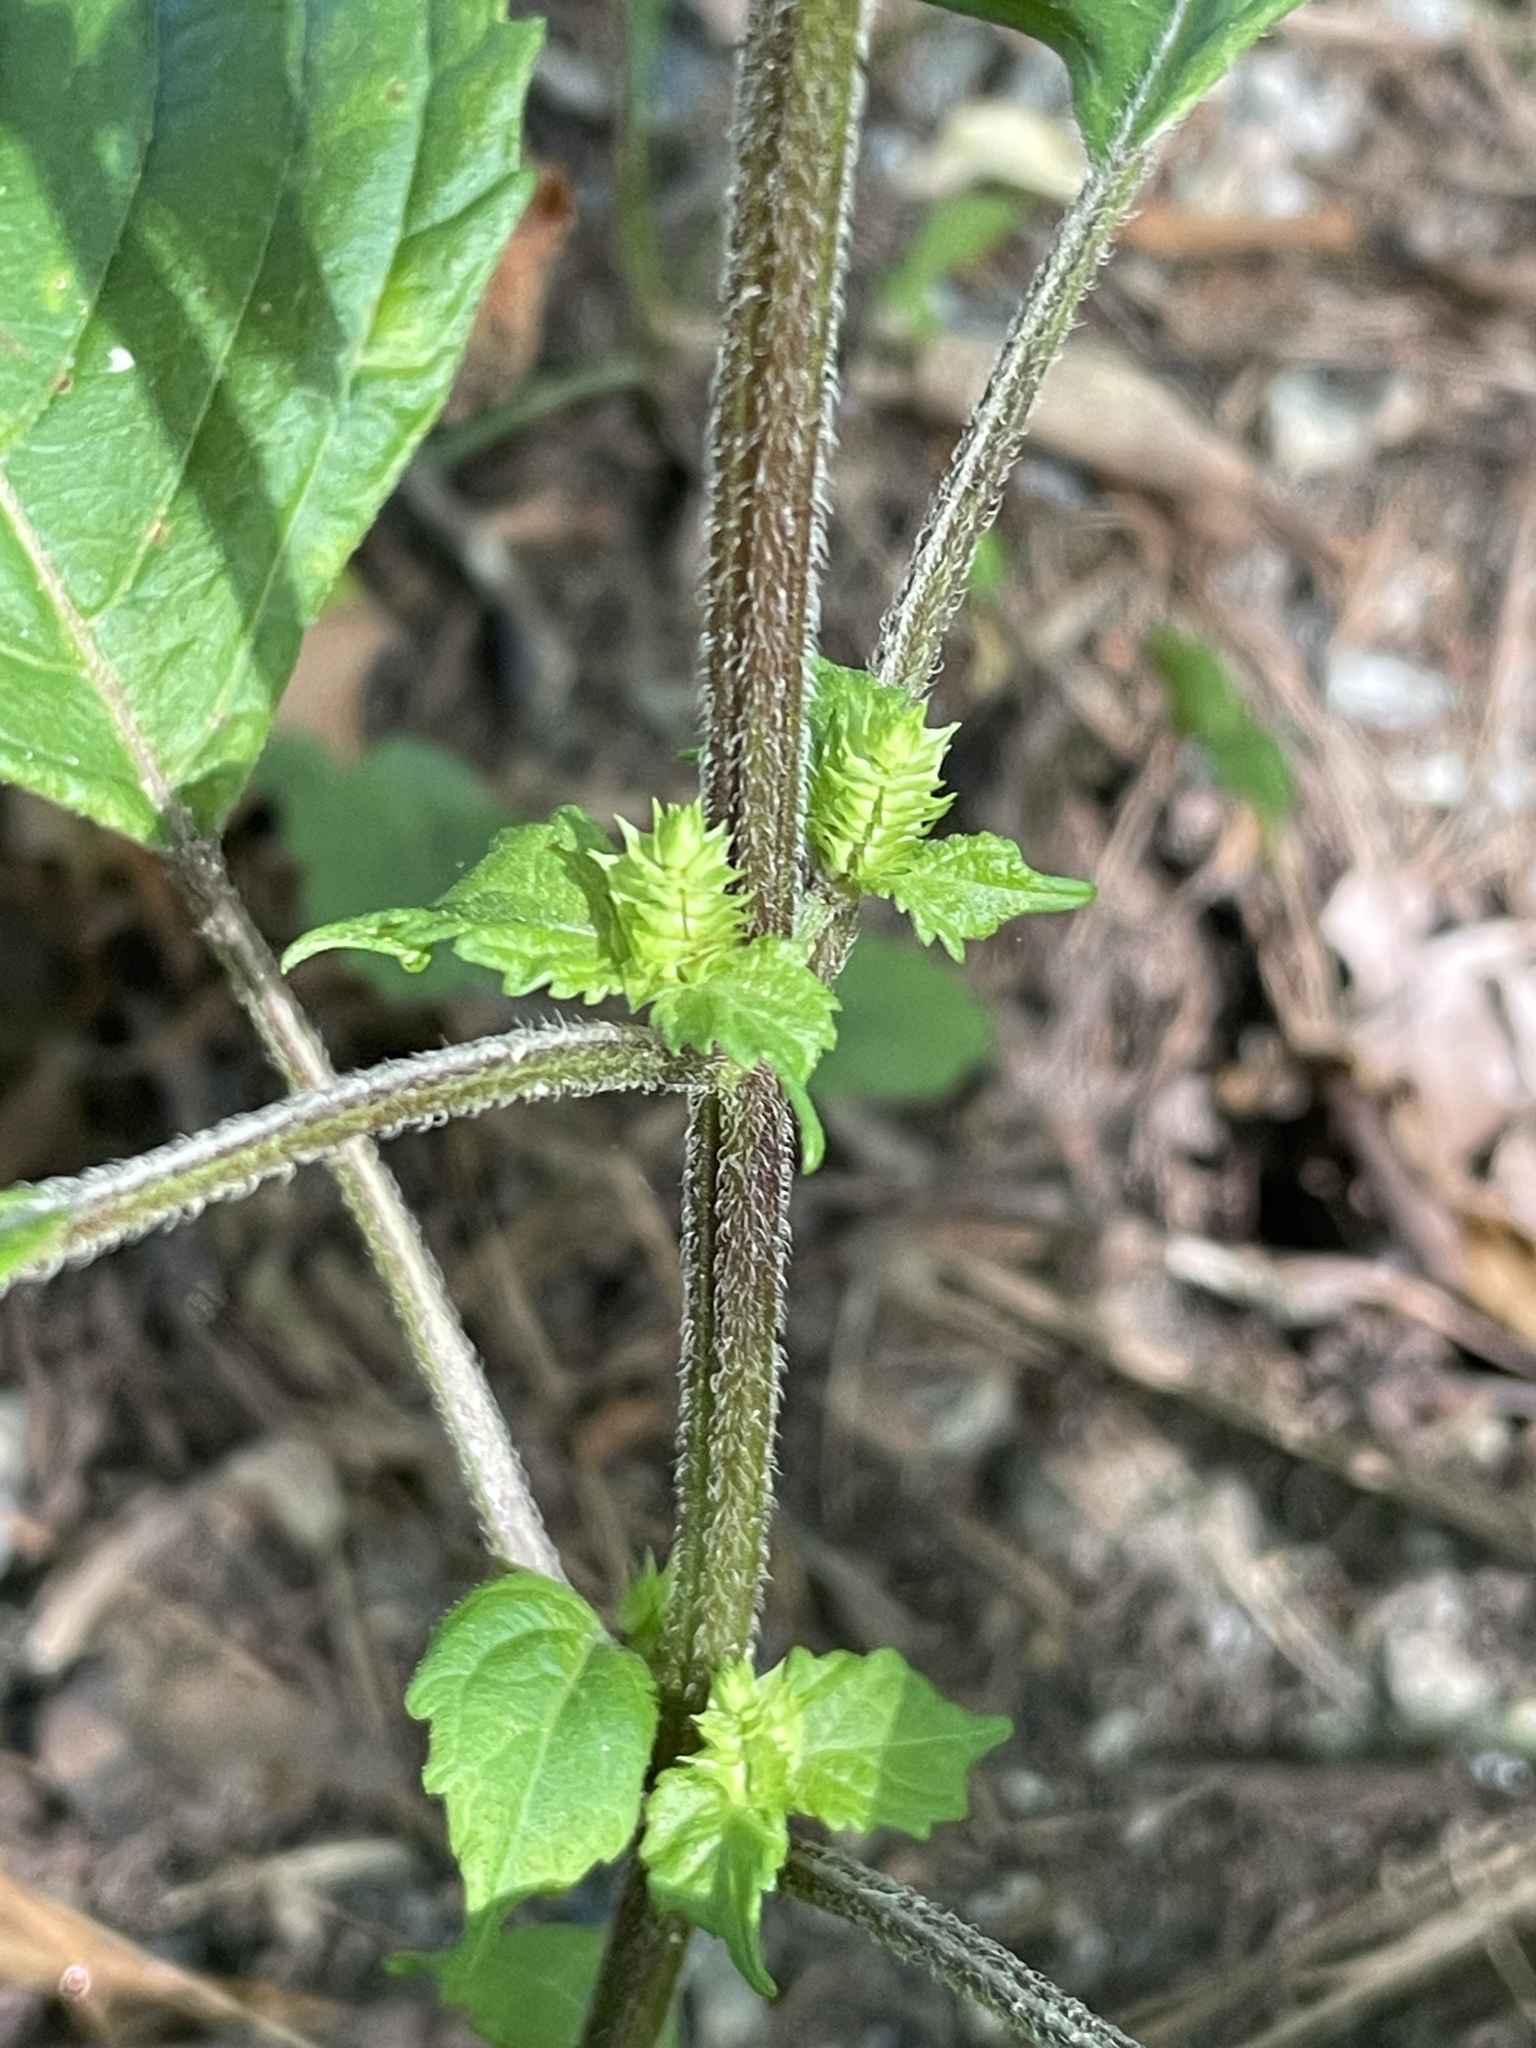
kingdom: Plantae
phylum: Tracheophyta
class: Magnoliopsida
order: Lamiales
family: Lamiaceae
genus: Perilla
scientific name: Perilla frutescens
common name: Perilla
